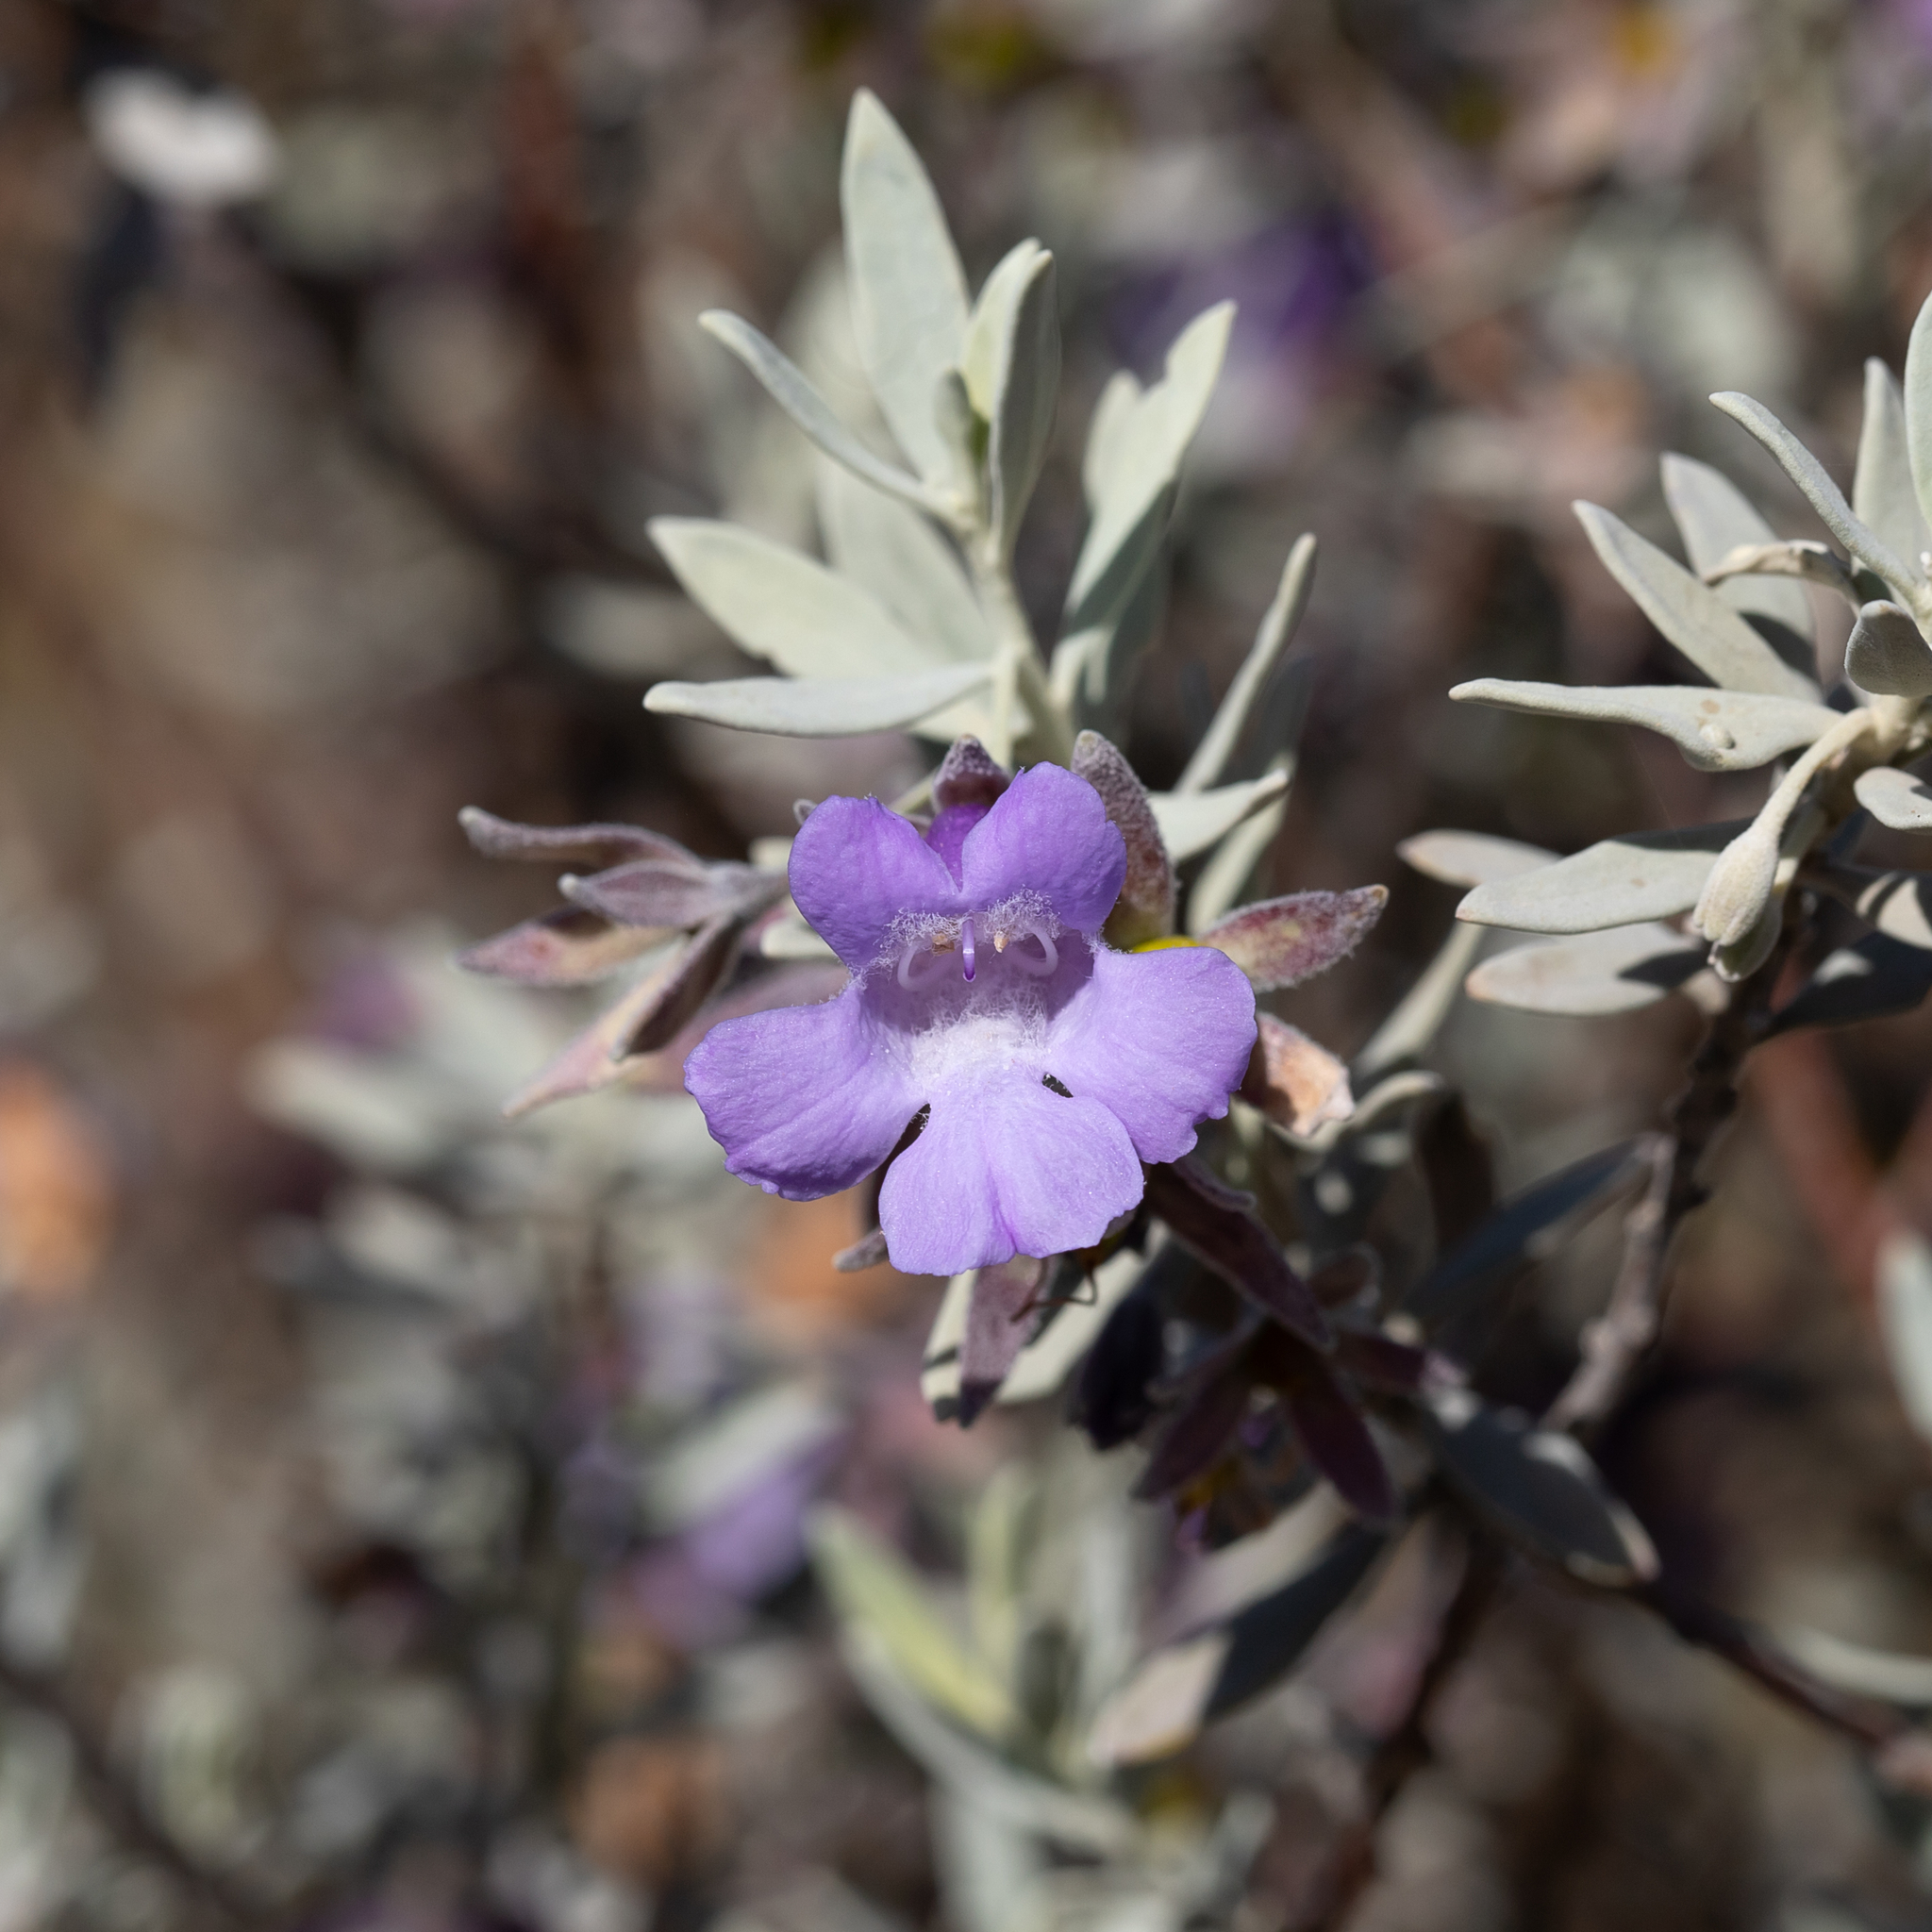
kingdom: Plantae
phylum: Tracheophyta
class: Magnoliopsida
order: Lamiales
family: Scrophulariaceae
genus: Eremophila
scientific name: Eremophila bowmanii
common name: Silver turkeybush
